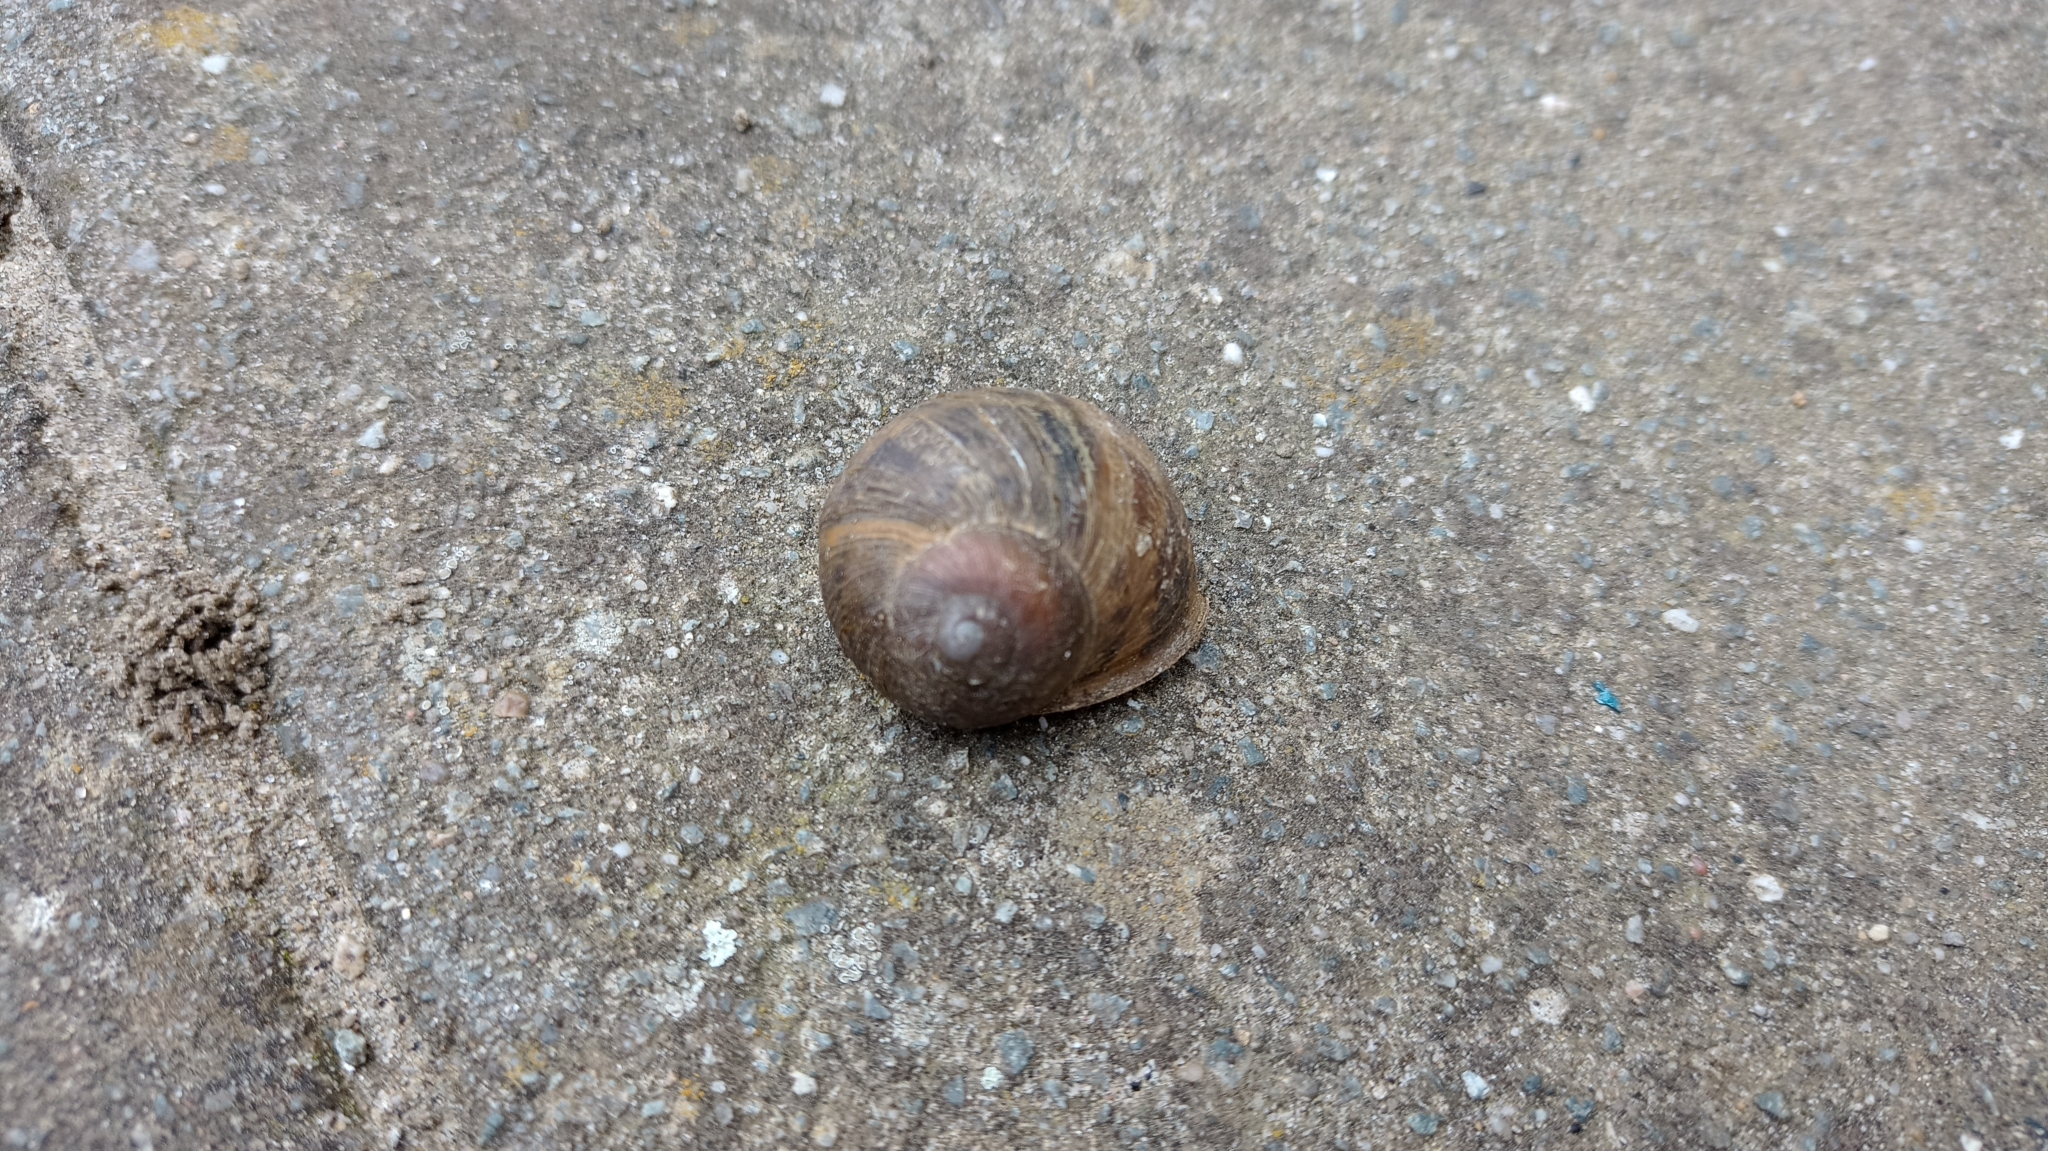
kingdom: Animalia
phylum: Mollusca
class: Gastropoda
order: Stylommatophora
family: Helicidae
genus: Cornu
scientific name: Cornu aspersum
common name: Brown garden snail
